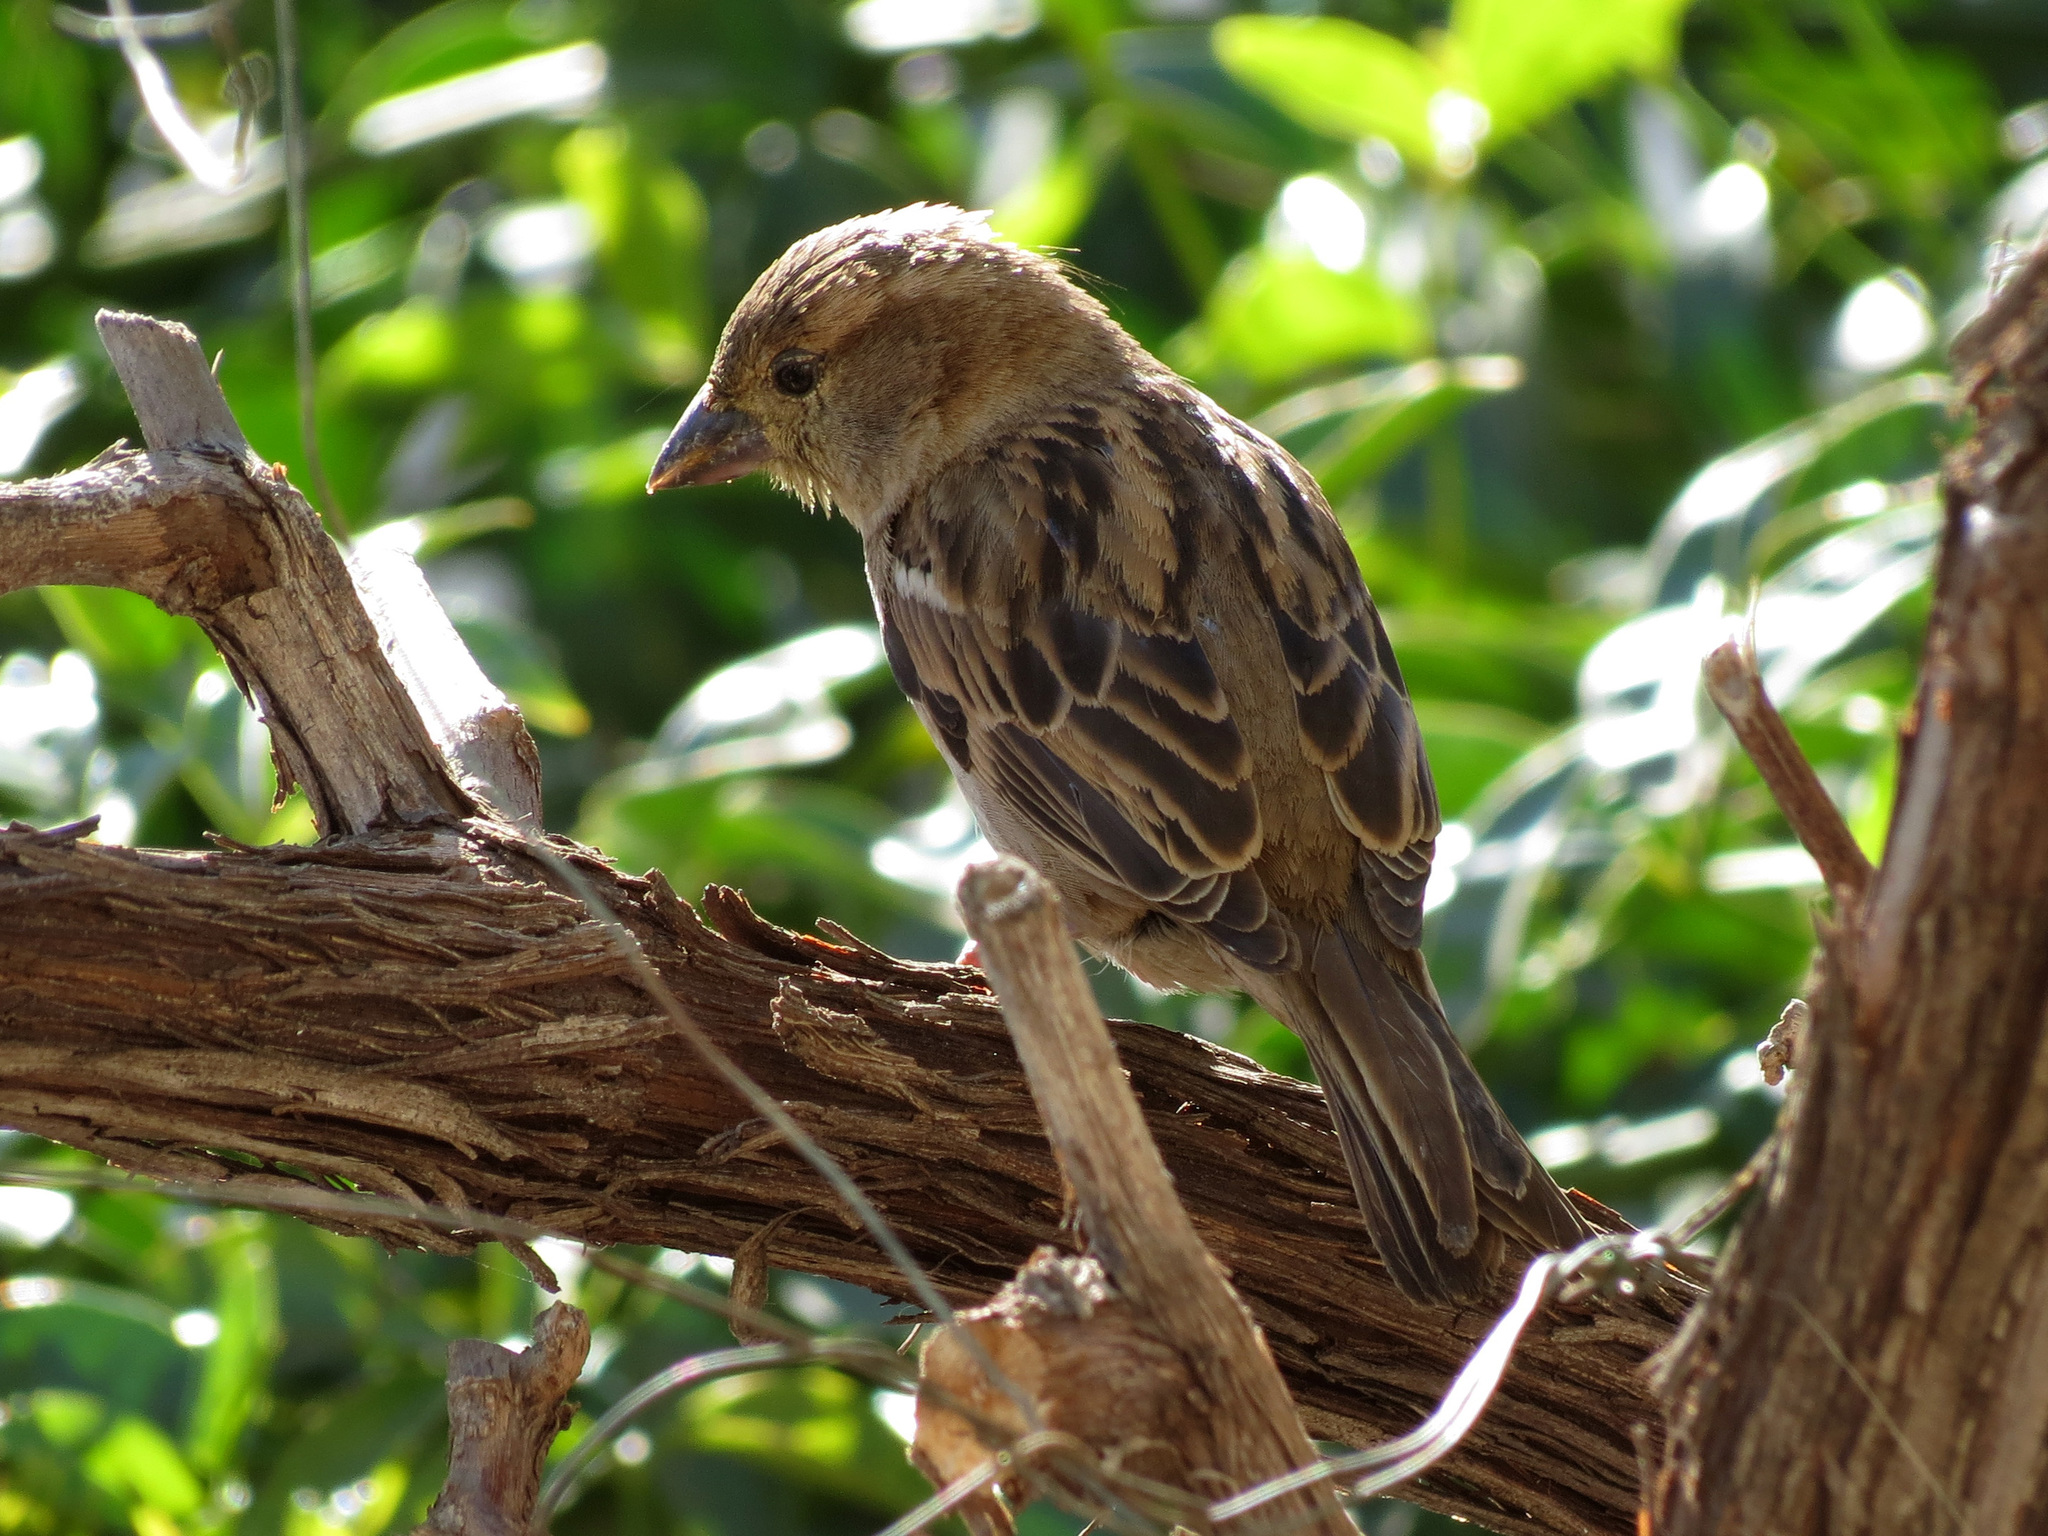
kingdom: Animalia
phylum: Chordata
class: Aves
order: Passeriformes
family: Passeridae
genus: Passer
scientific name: Passer domesticus
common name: House sparrow
